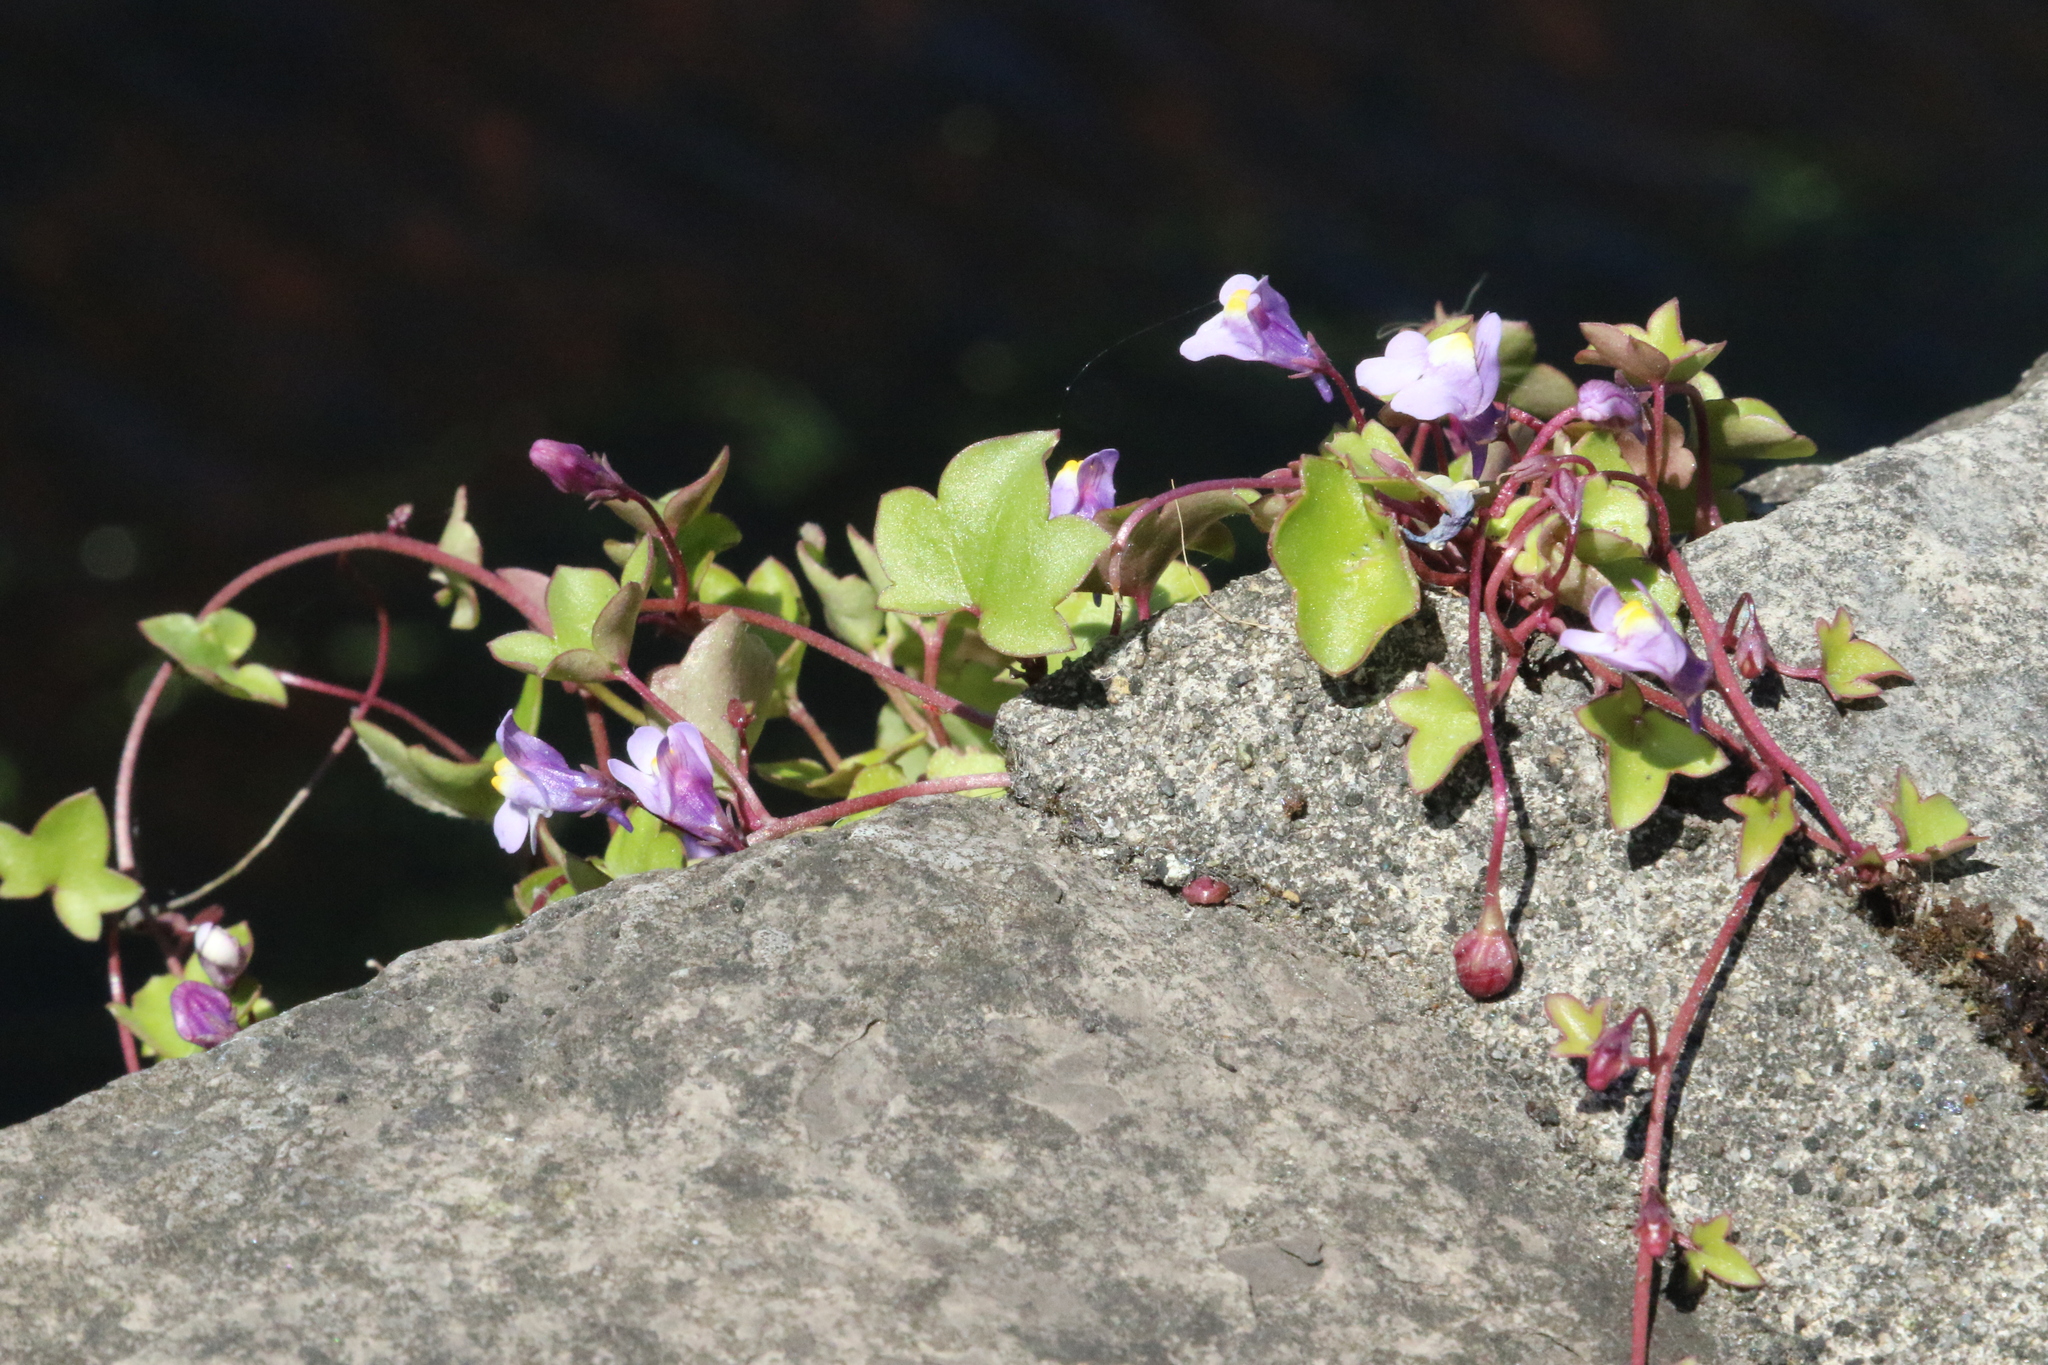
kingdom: Plantae
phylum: Tracheophyta
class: Magnoliopsida
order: Lamiales
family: Plantaginaceae
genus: Cymbalaria
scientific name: Cymbalaria muralis
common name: Ivy-leaved toadflax
